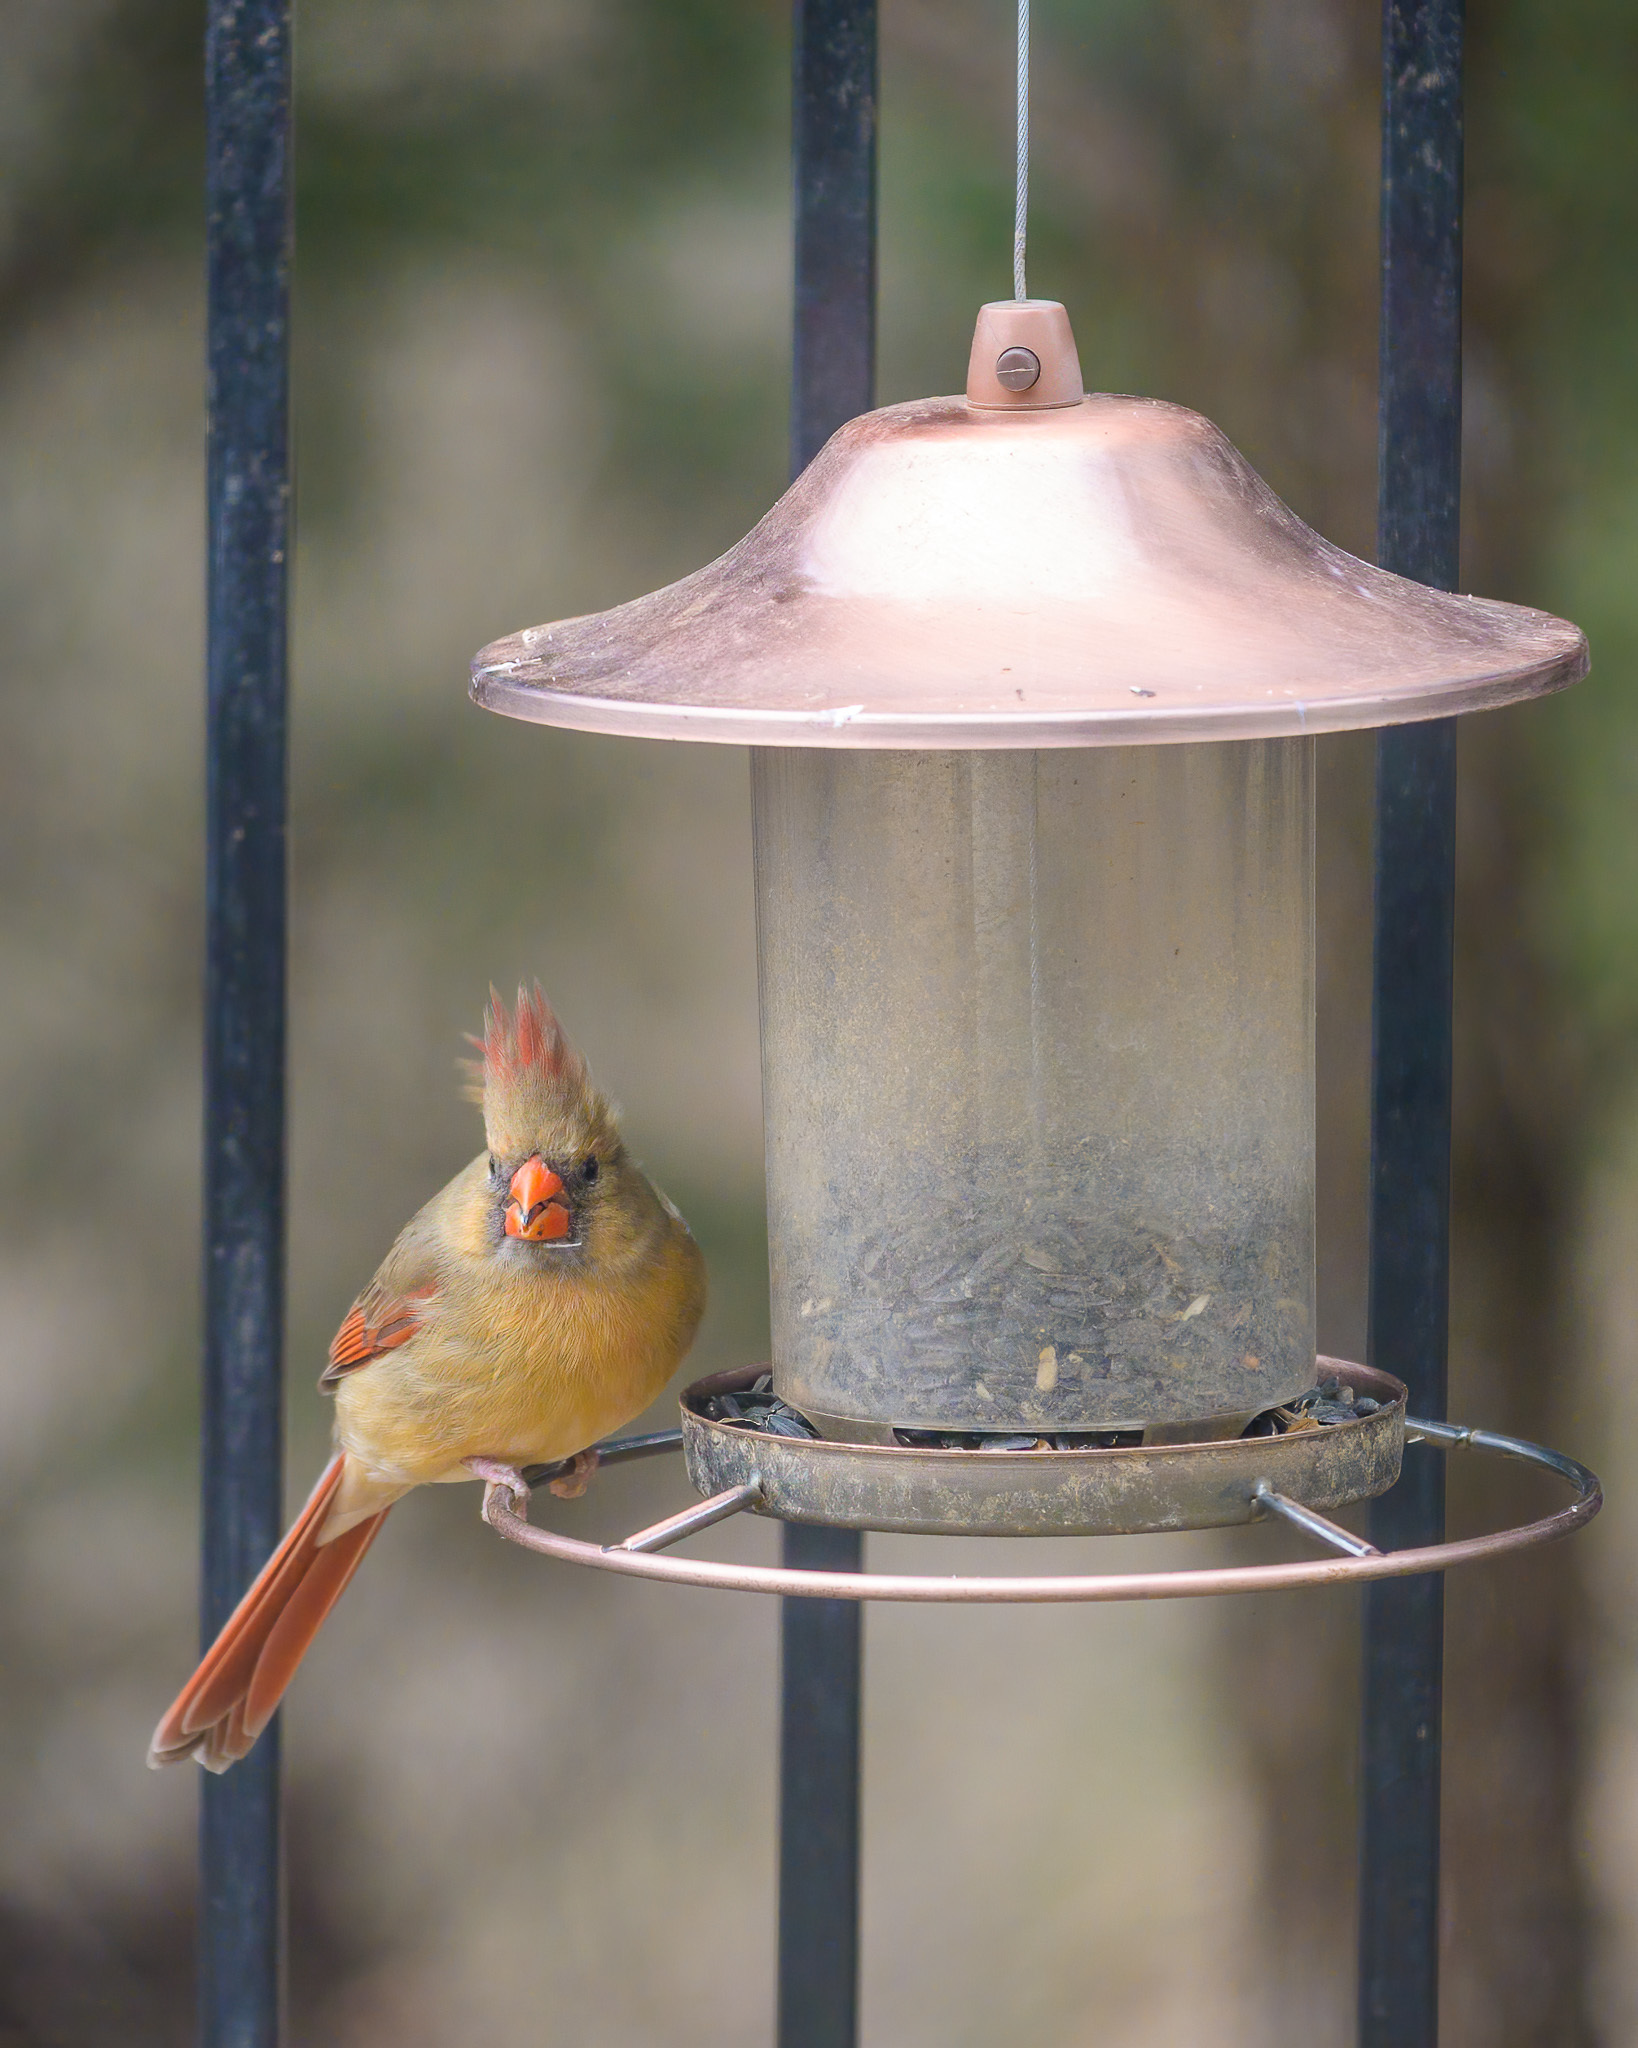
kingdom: Animalia
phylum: Chordata
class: Aves
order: Passeriformes
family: Cardinalidae
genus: Cardinalis
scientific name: Cardinalis cardinalis
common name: Northern cardinal
